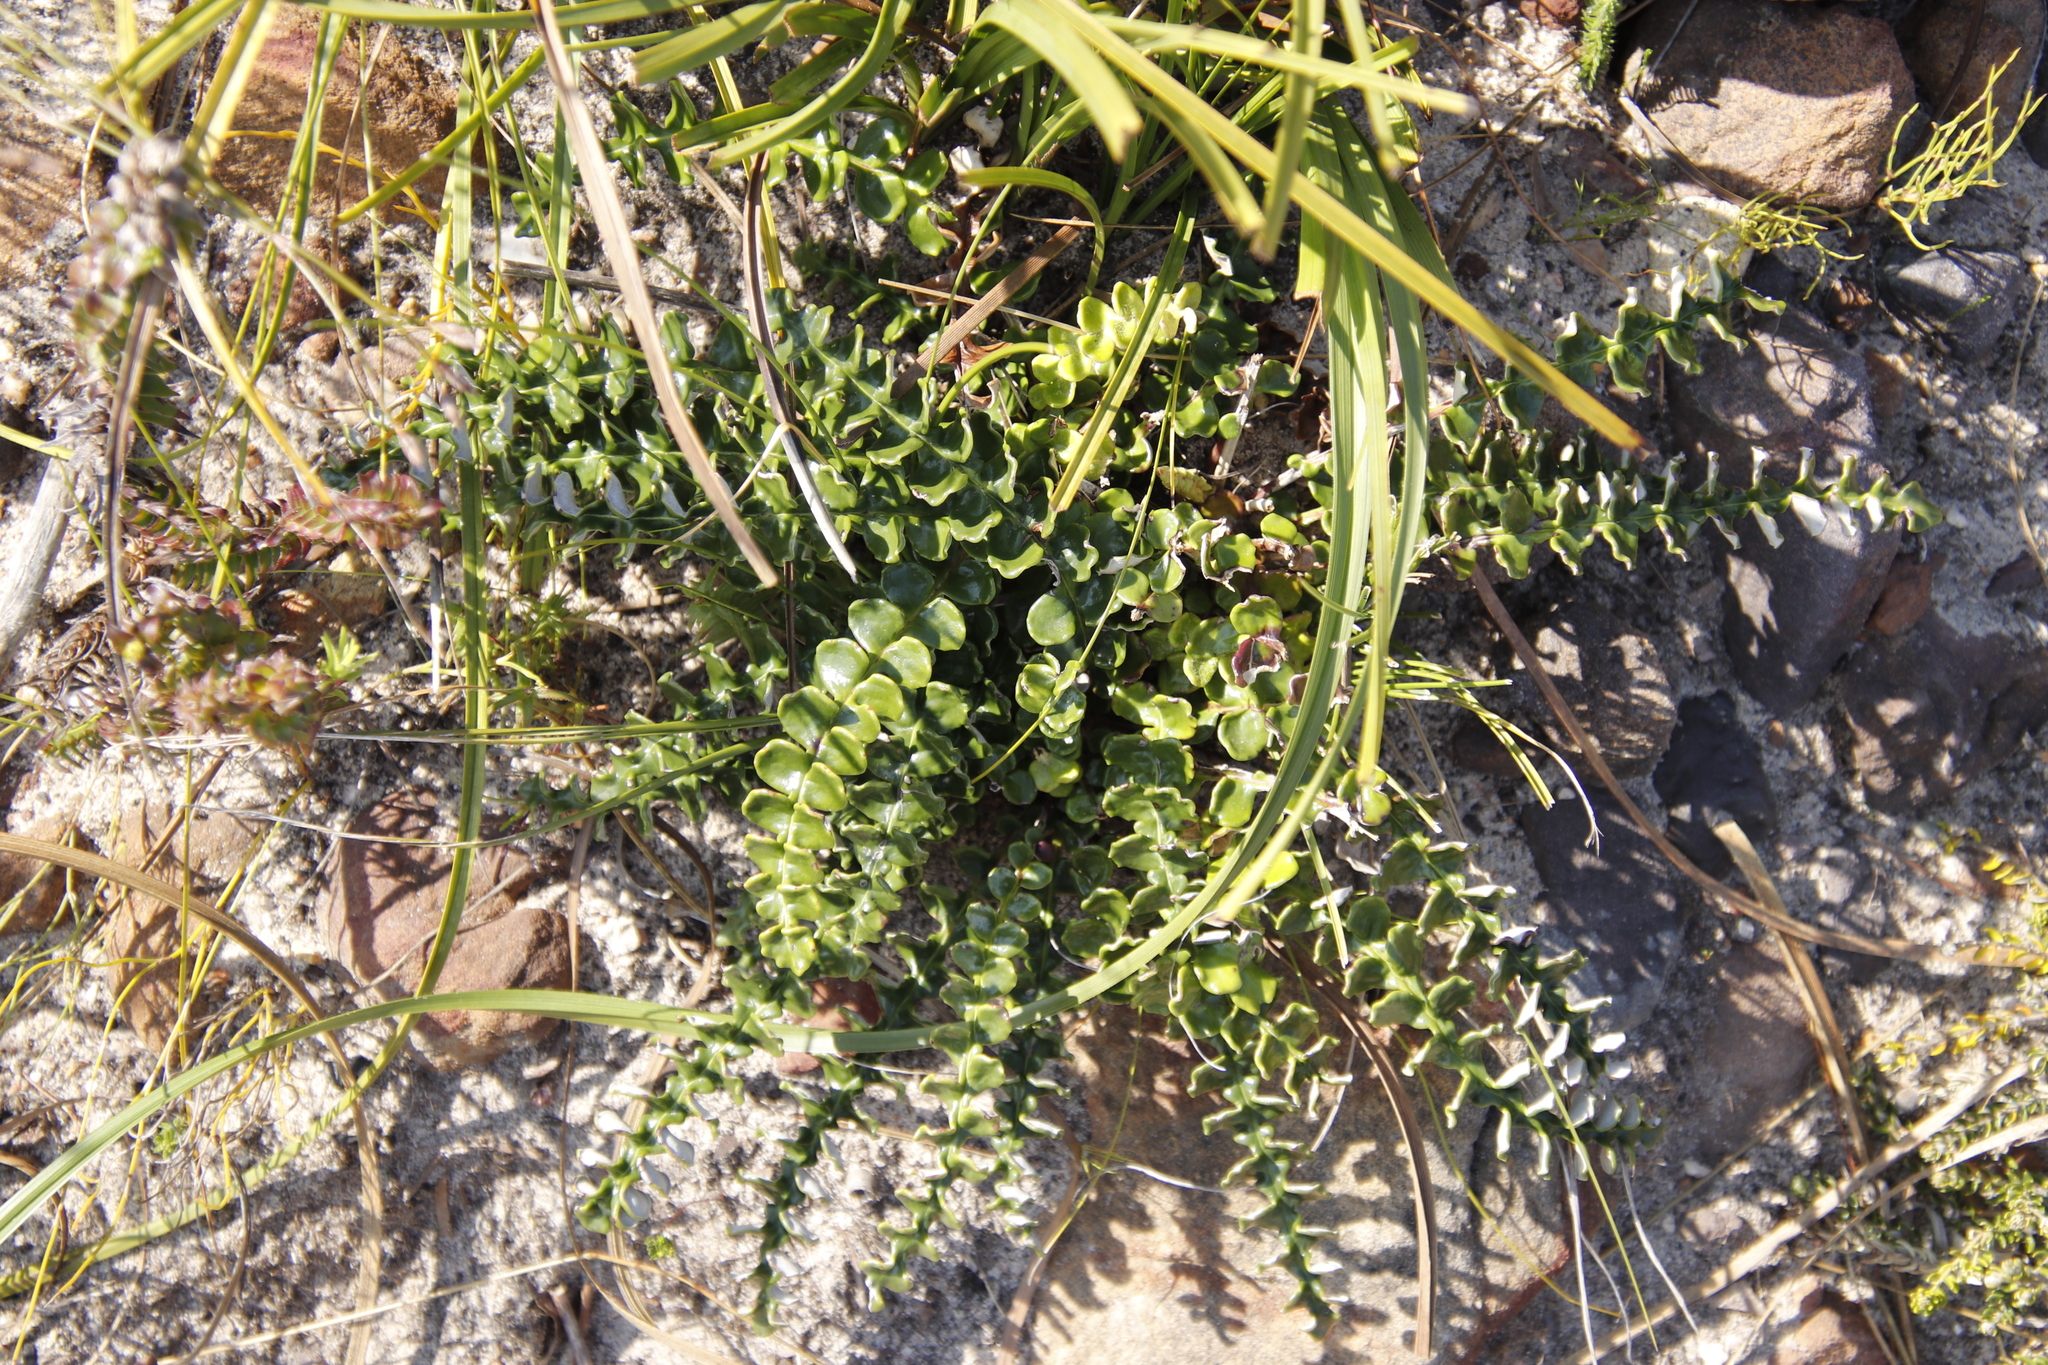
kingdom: Plantae
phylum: Tracheophyta
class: Magnoliopsida
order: Asterales
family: Asteraceae
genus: Gerbera
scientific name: Gerbera linnaei
